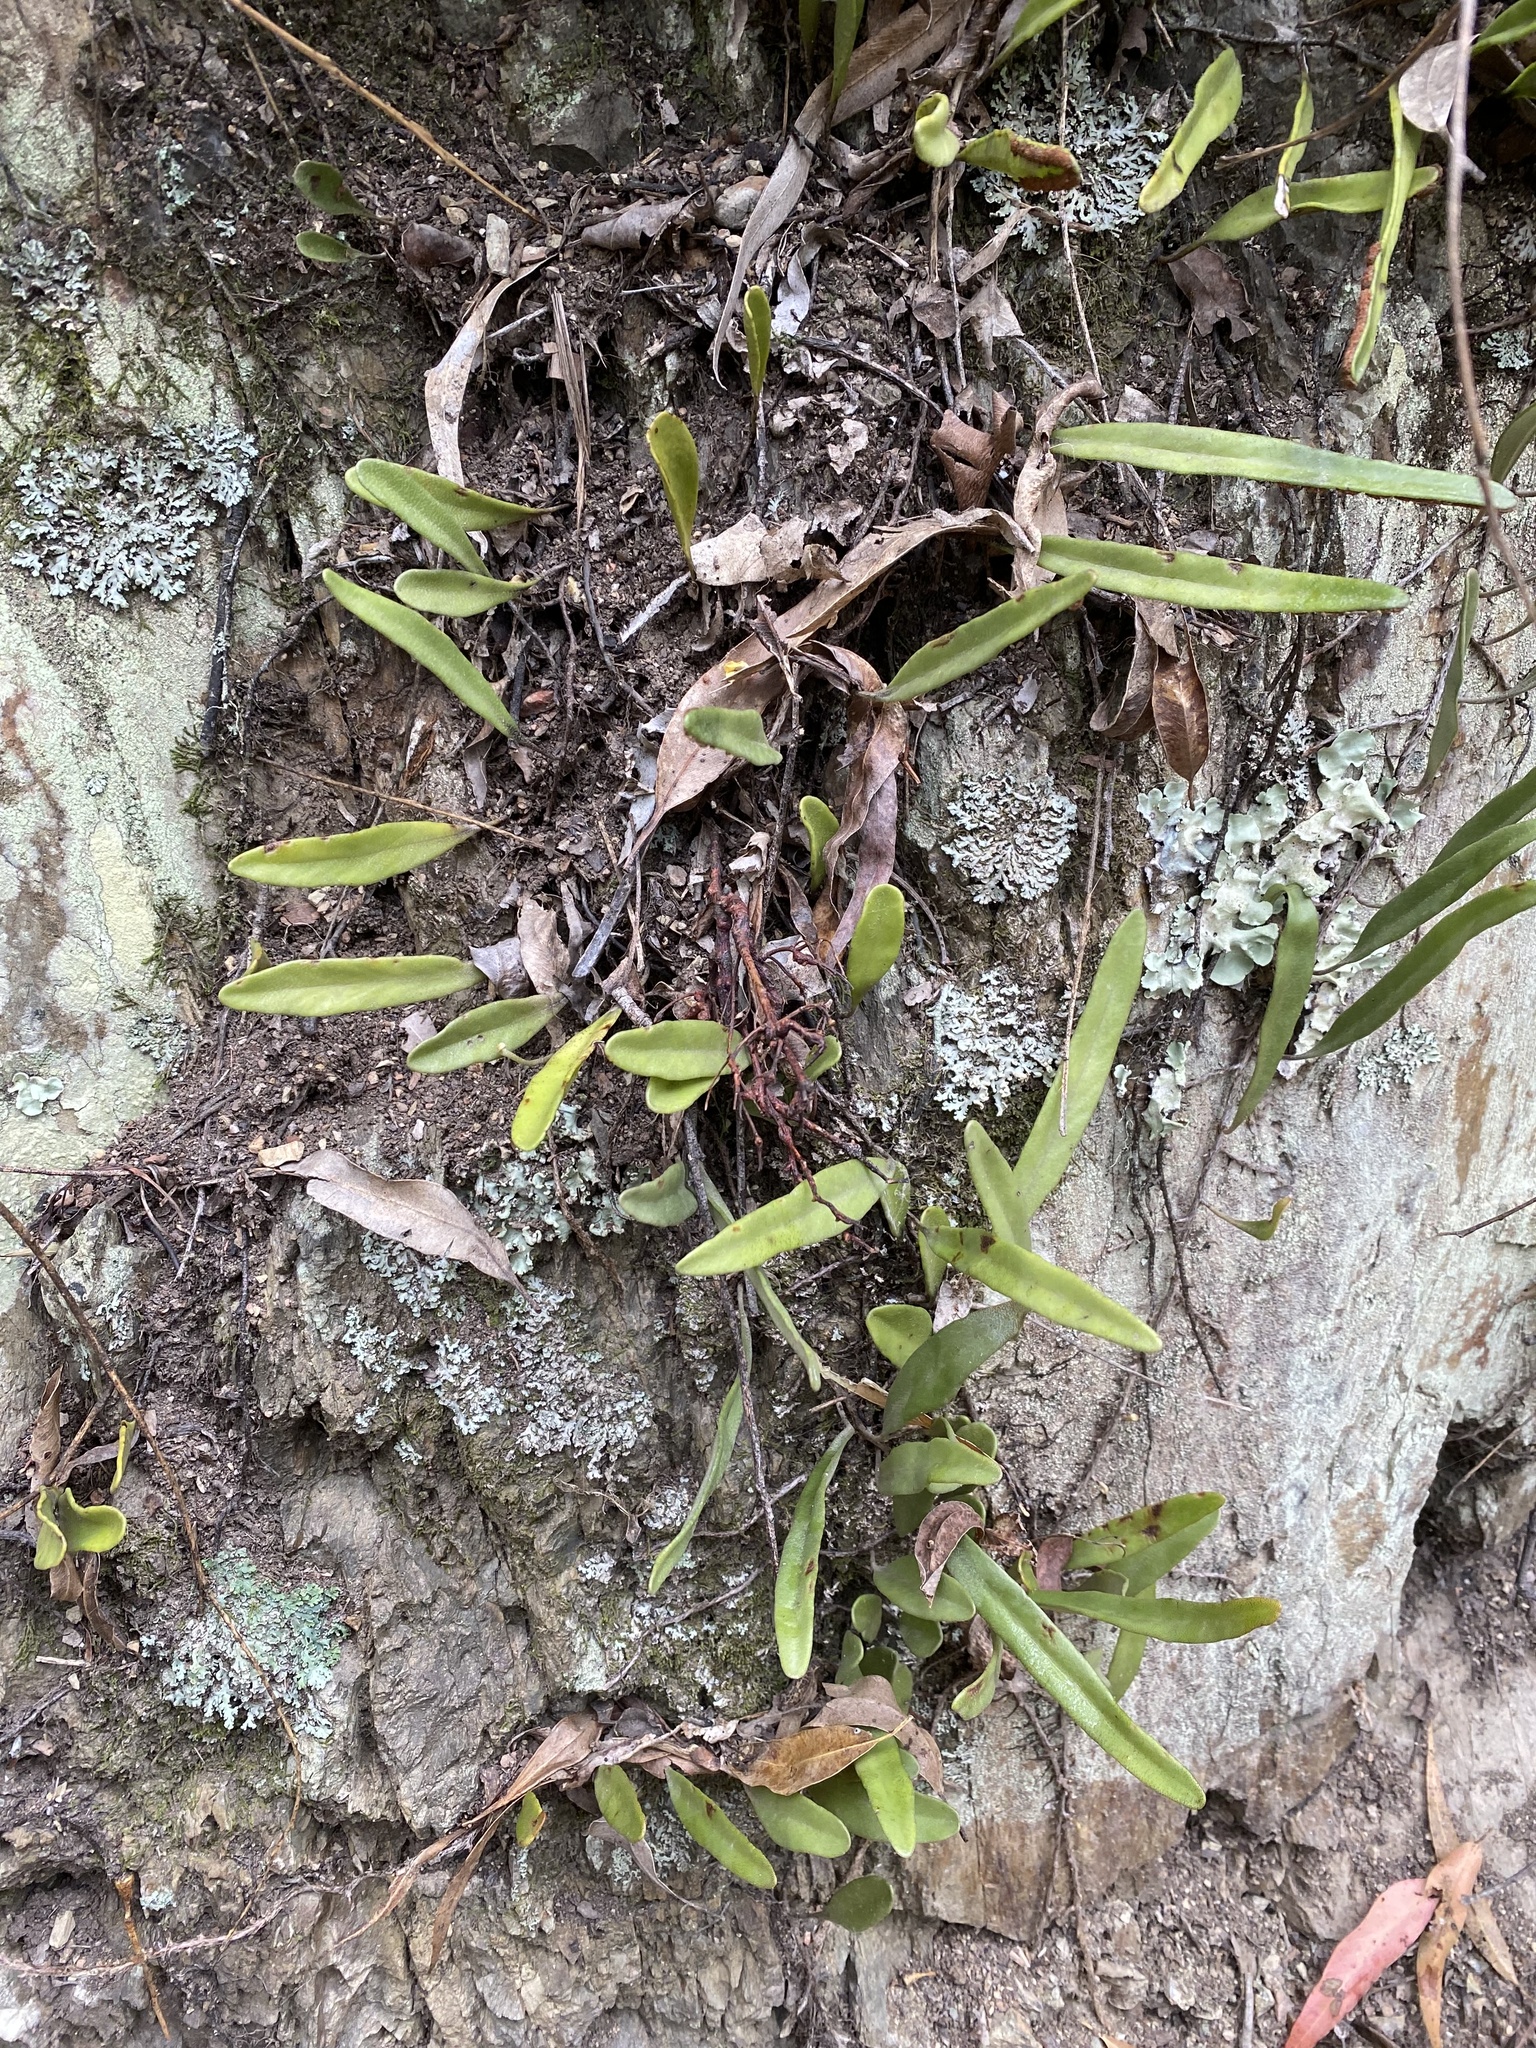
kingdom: Plantae
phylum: Tracheophyta
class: Polypodiopsida
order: Polypodiales
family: Polypodiaceae
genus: Pyrrosia
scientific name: Pyrrosia rupestris
